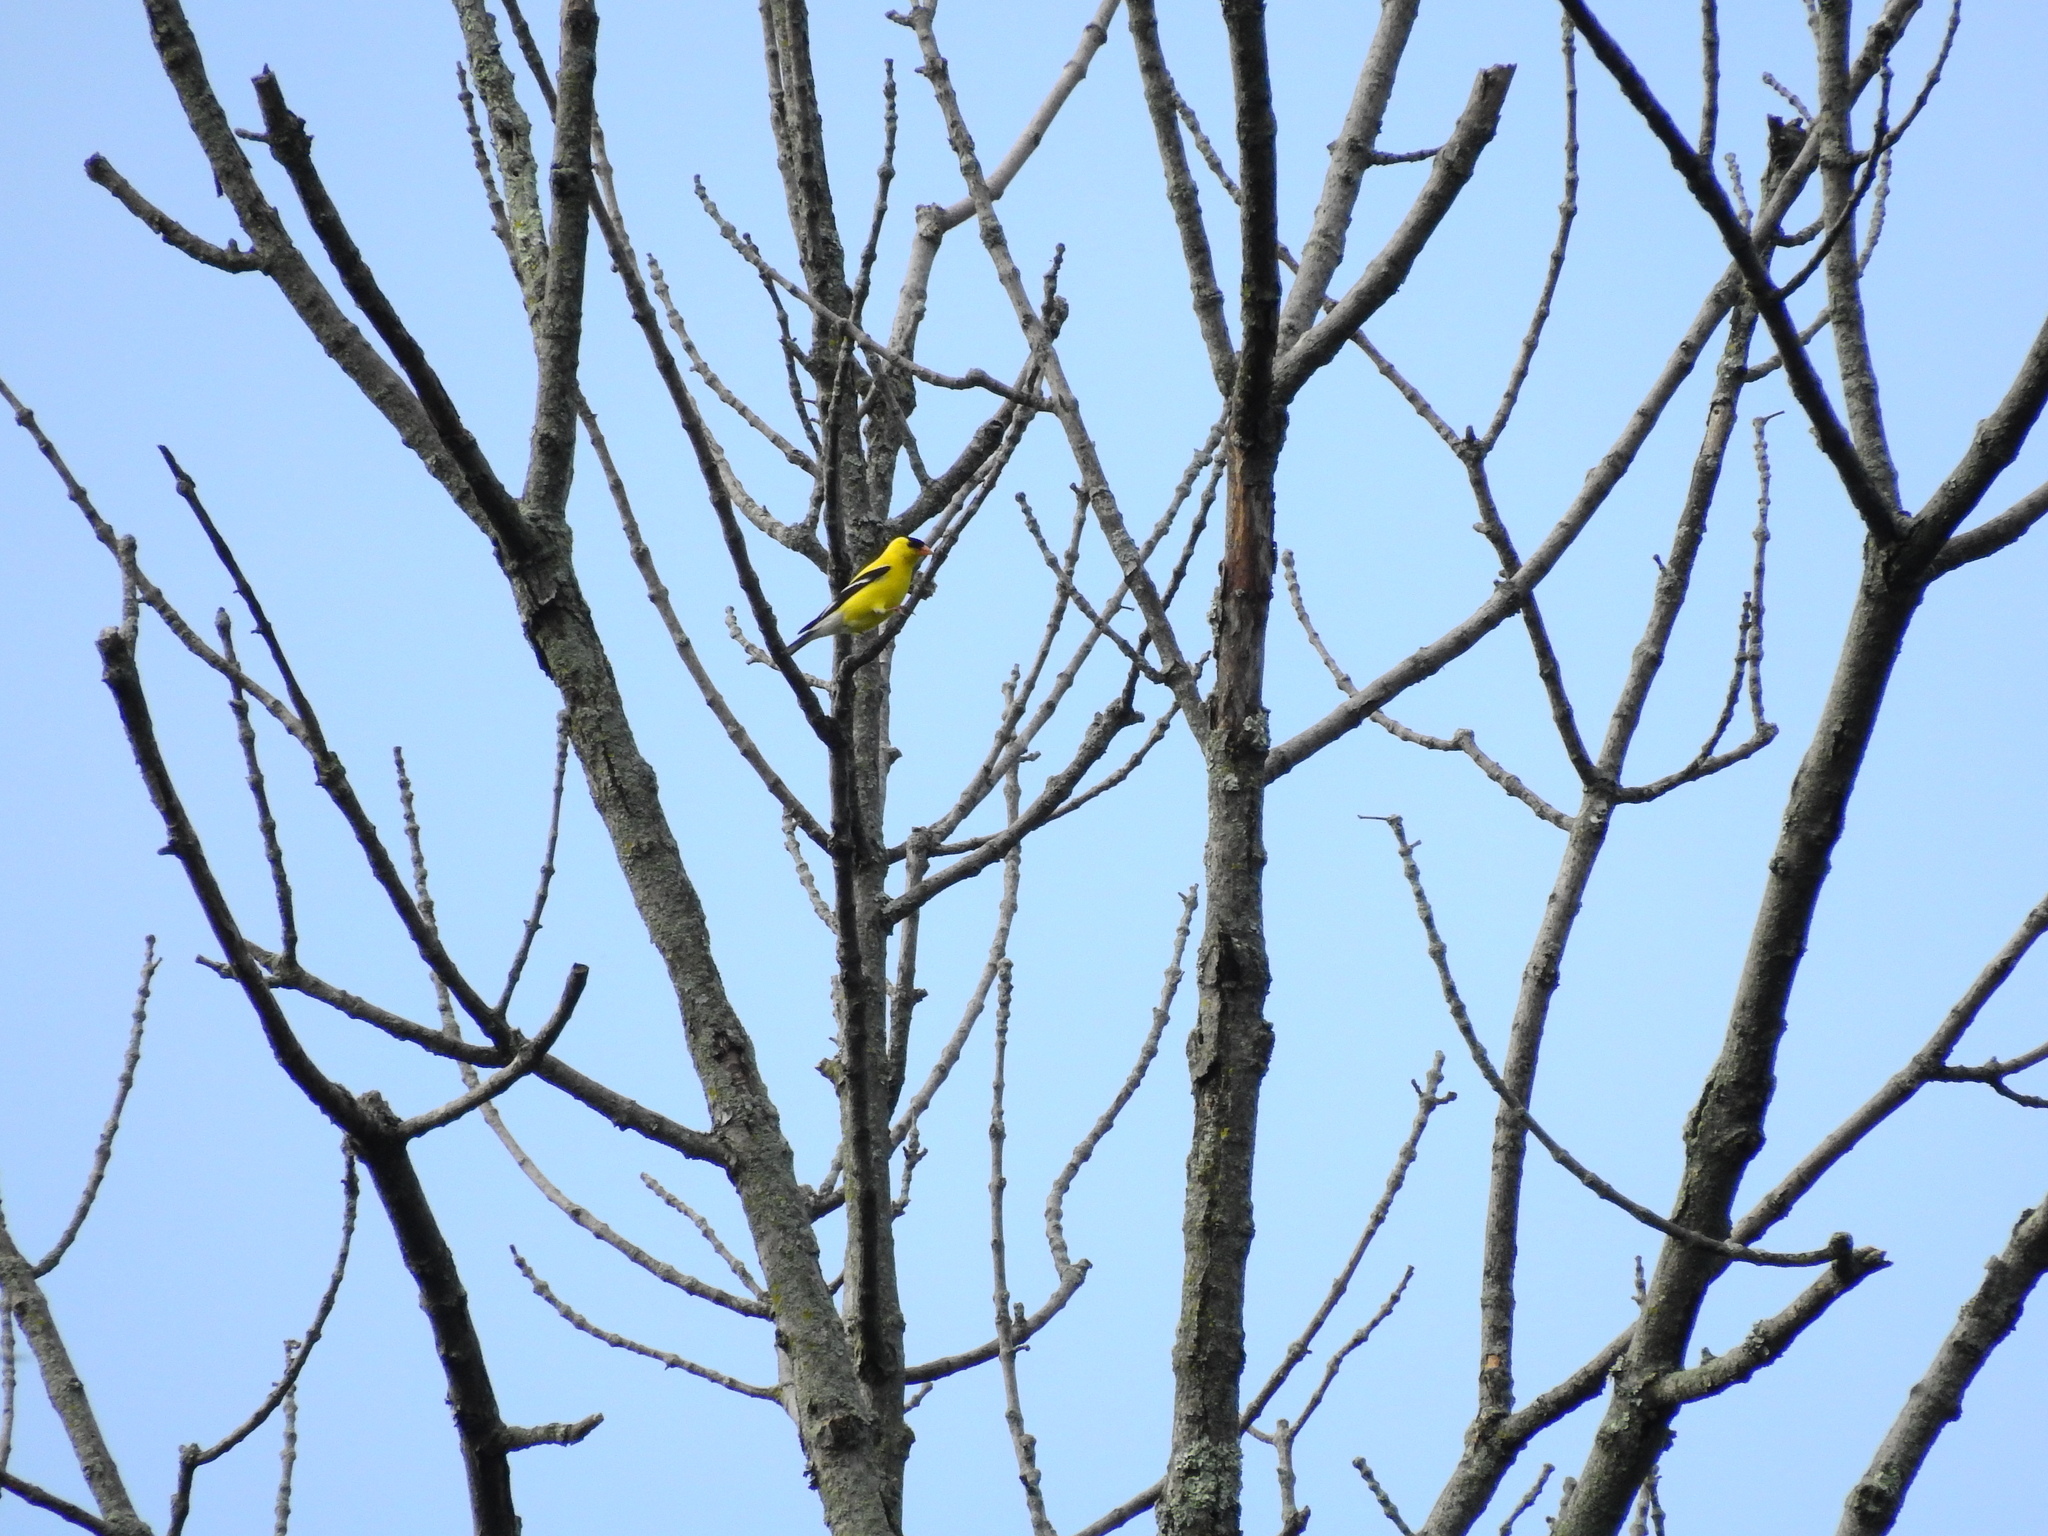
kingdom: Animalia
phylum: Chordata
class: Aves
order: Passeriformes
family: Fringillidae
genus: Spinus
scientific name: Spinus tristis
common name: American goldfinch
